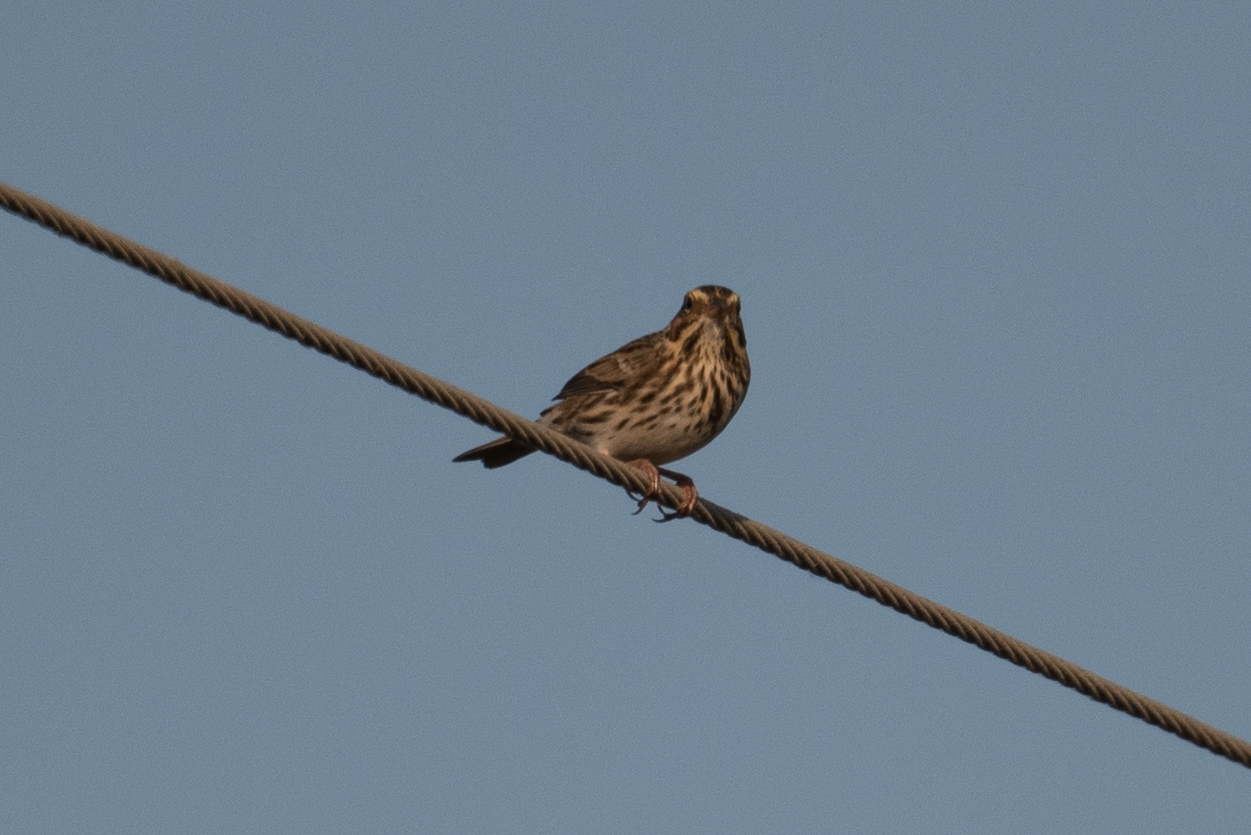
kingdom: Animalia
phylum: Chordata
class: Aves
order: Passeriformes
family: Passerellidae
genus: Passerculus
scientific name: Passerculus sandwichensis
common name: Savannah sparrow
